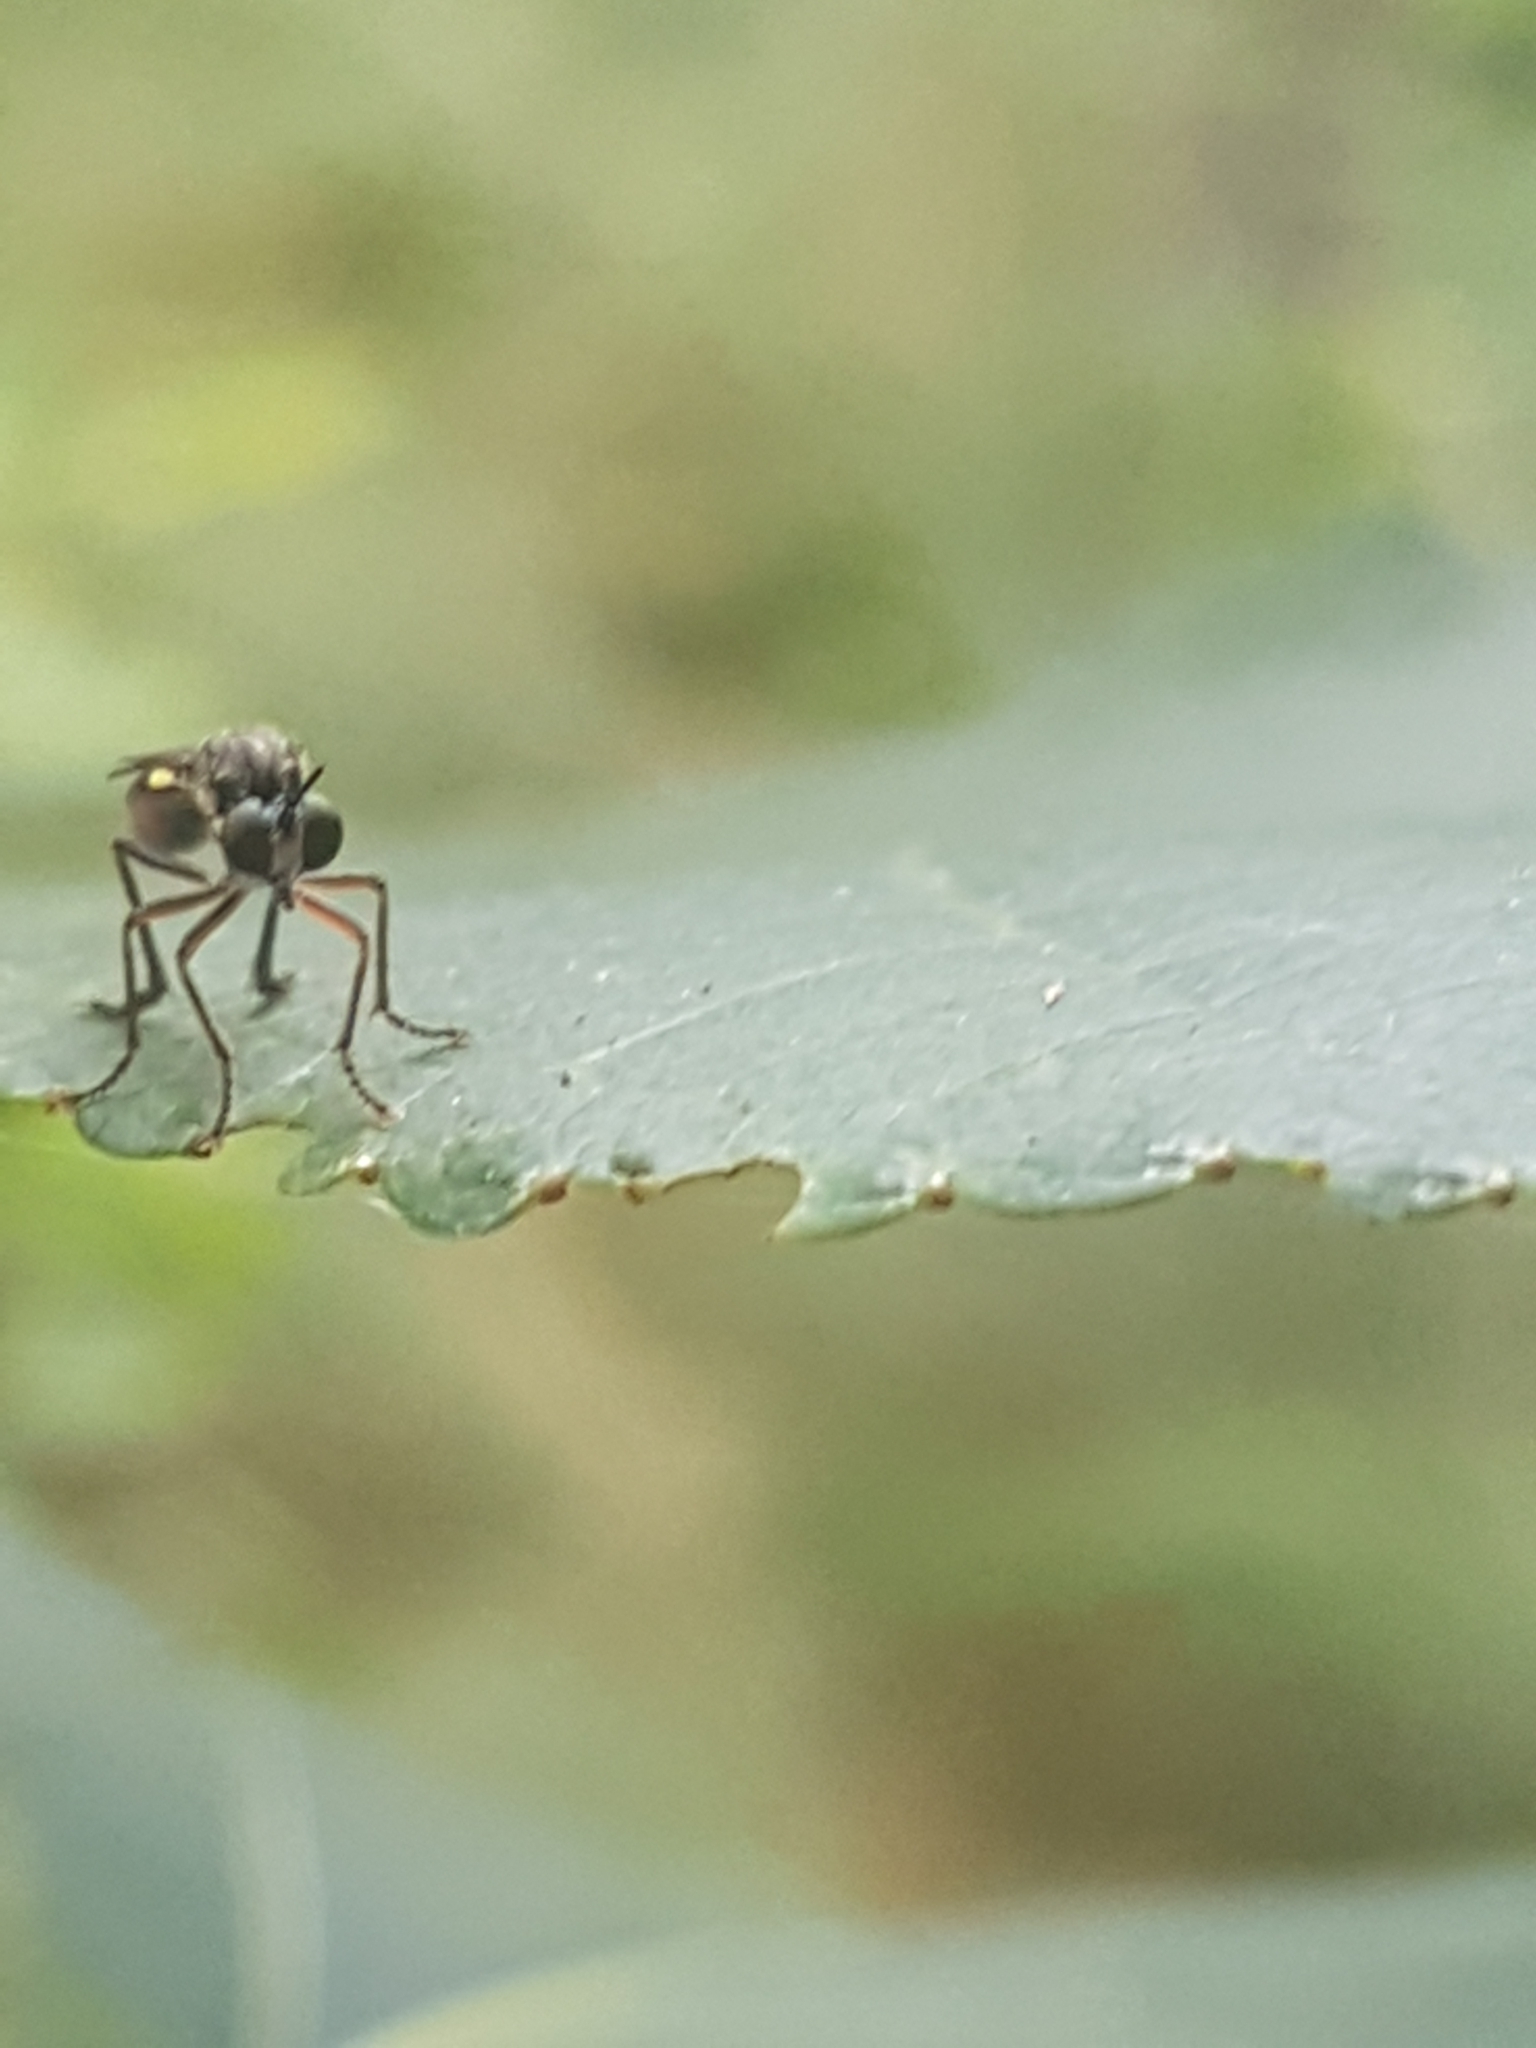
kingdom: Animalia
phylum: Arthropoda
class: Insecta
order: Diptera
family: Asilidae
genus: Dioctria
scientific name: Dioctria hyalipennis
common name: Stripe-legged robberfly
